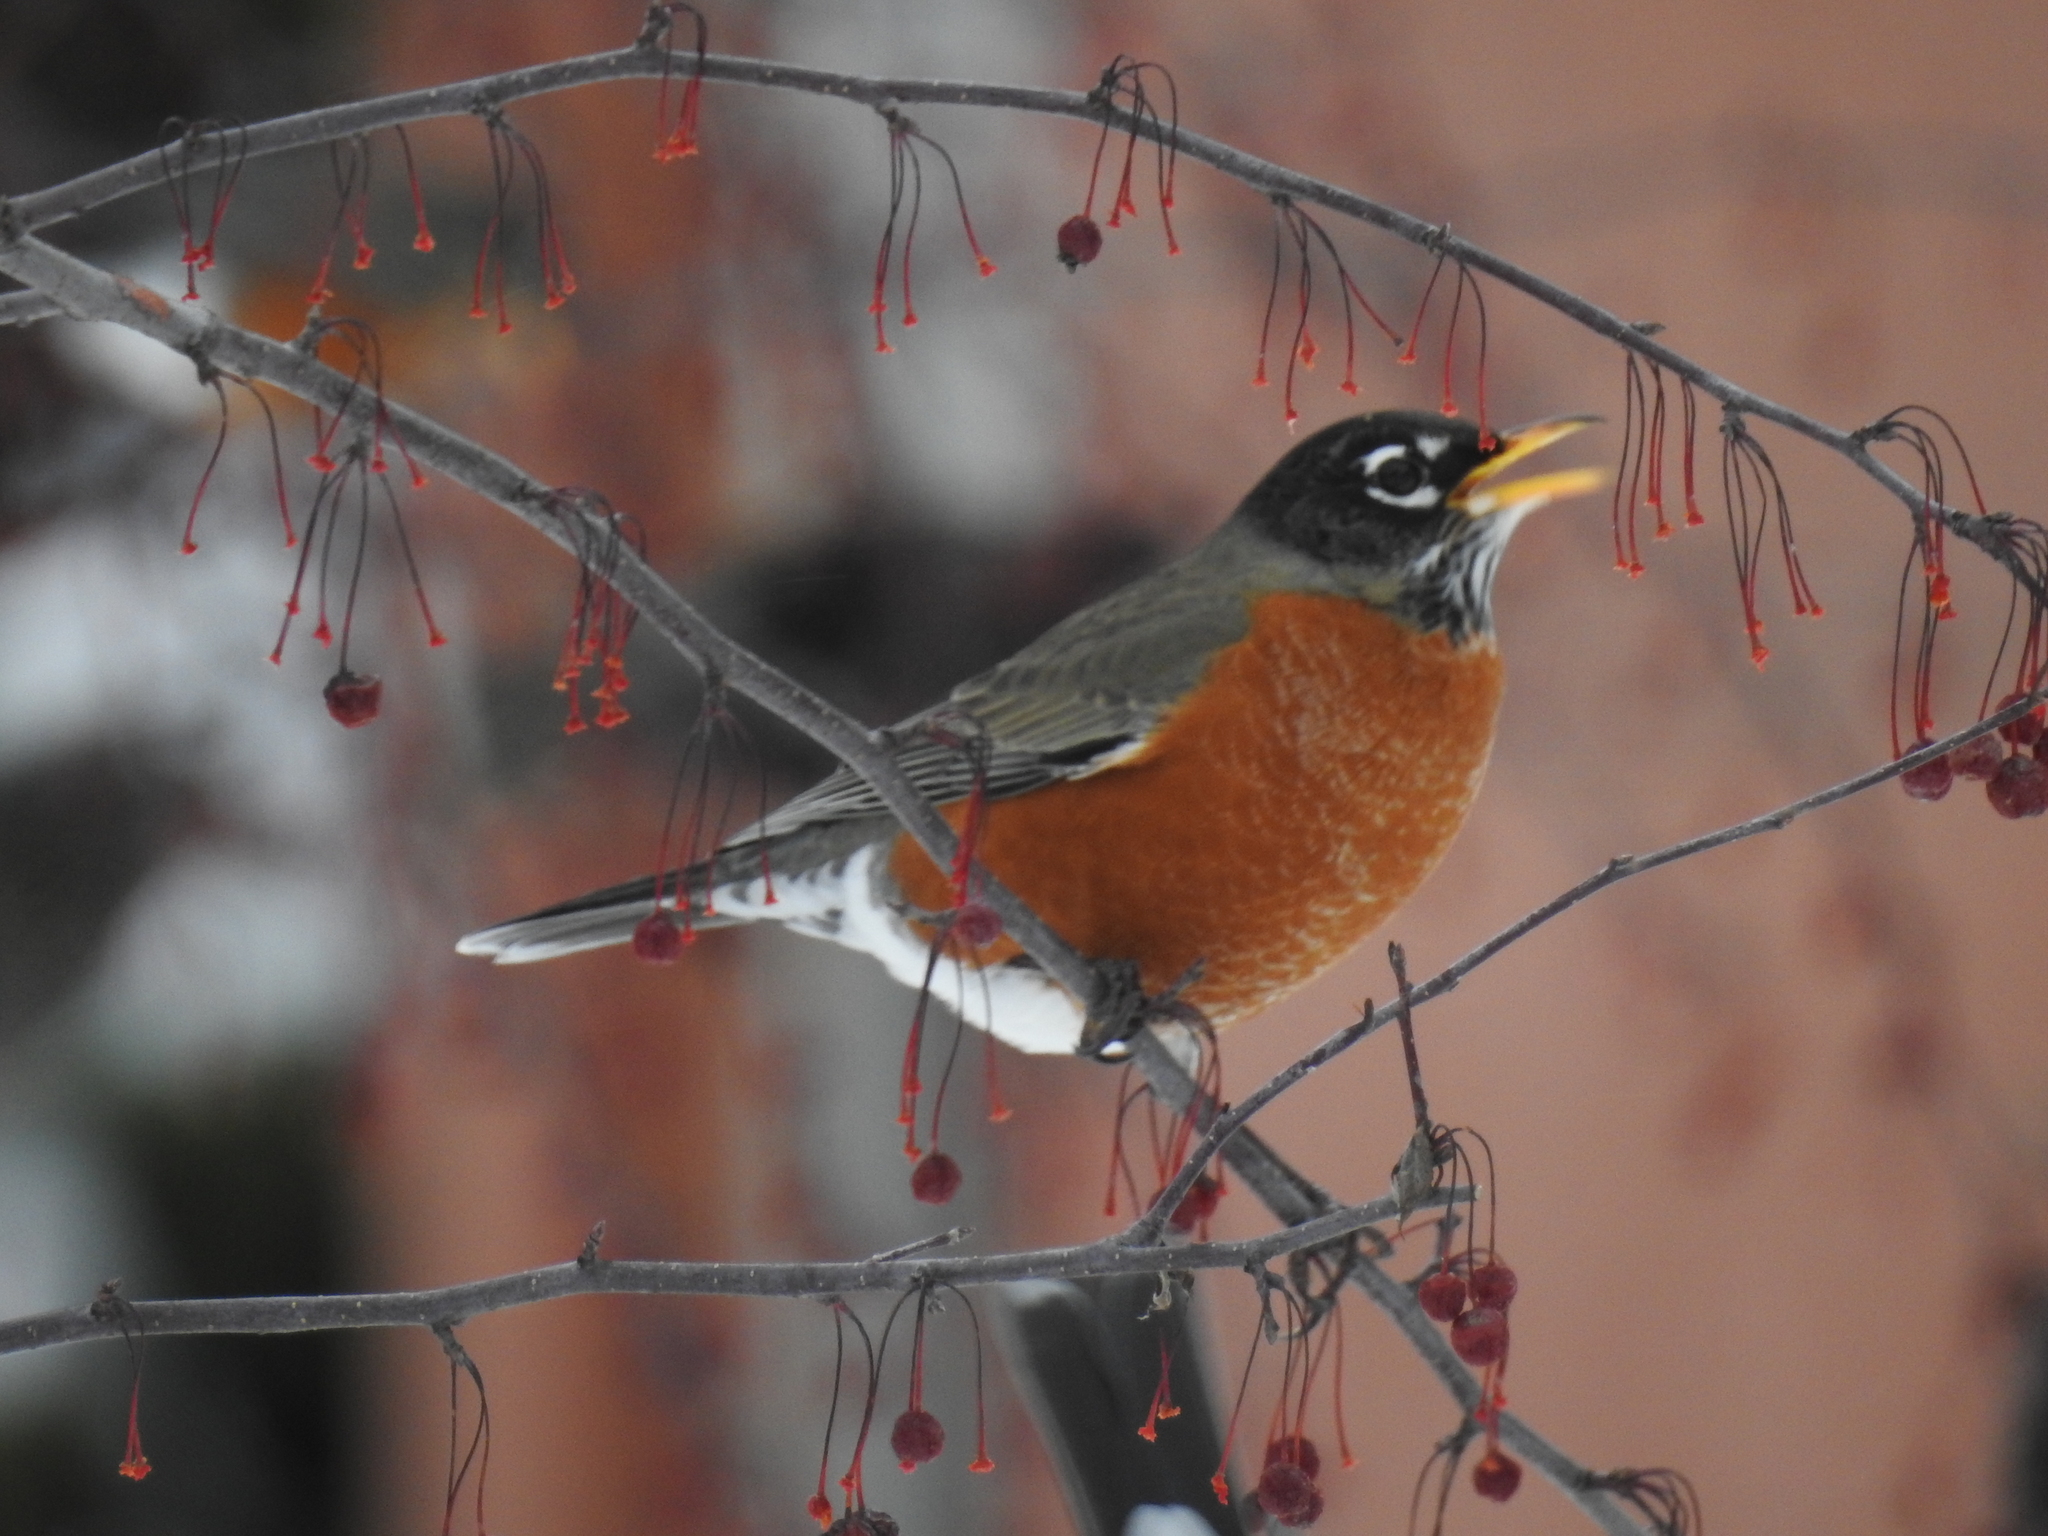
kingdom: Animalia
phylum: Chordata
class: Aves
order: Passeriformes
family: Turdidae
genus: Turdus
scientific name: Turdus migratorius
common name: American robin
